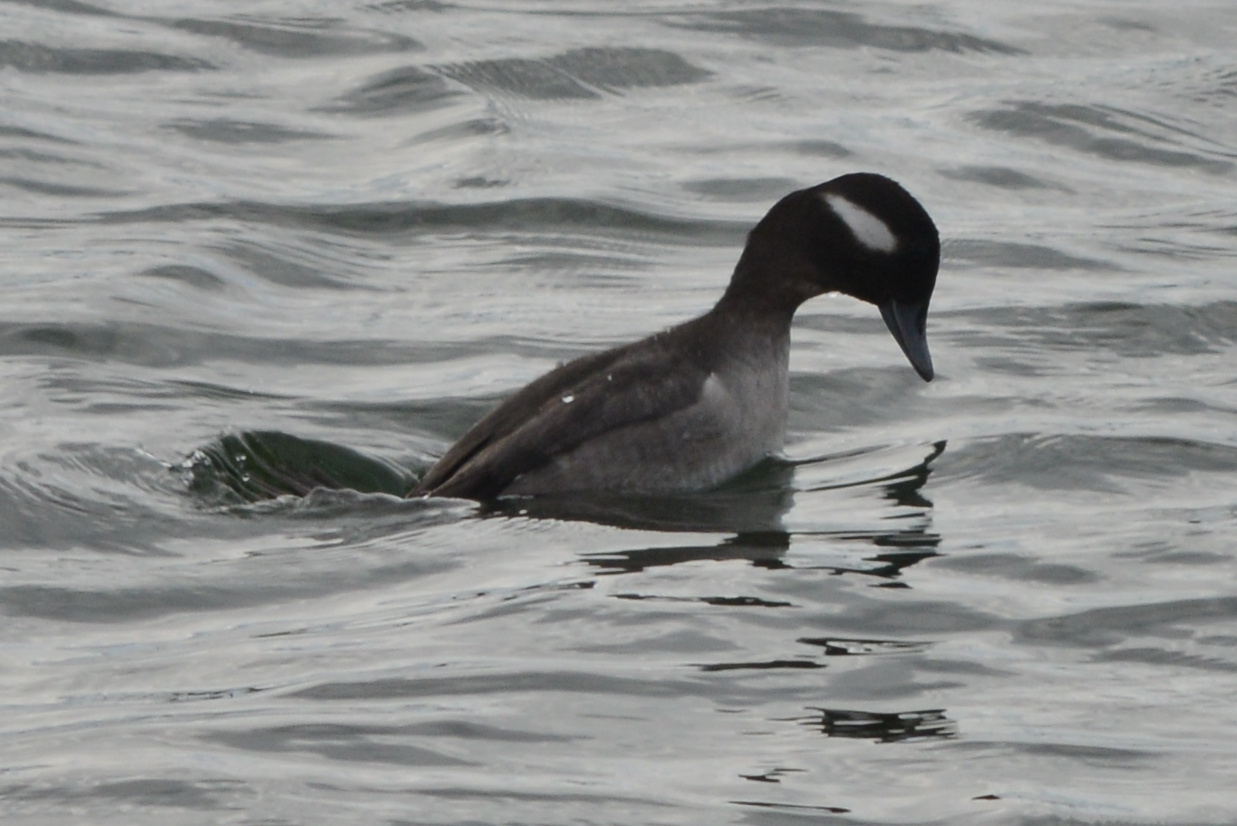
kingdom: Animalia
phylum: Chordata
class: Aves
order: Anseriformes
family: Anatidae
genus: Bucephala
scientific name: Bucephala albeola
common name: Bufflehead
